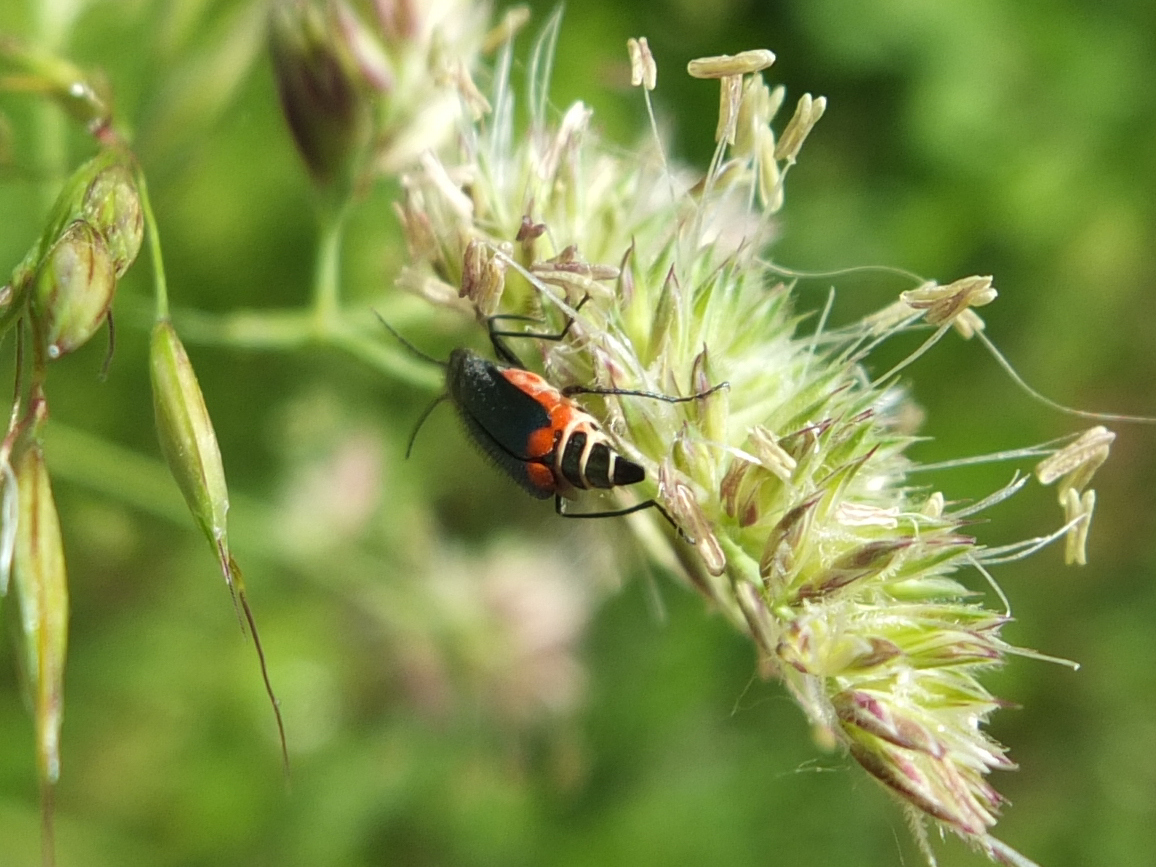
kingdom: Animalia
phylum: Arthropoda
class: Insecta
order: Coleoptera
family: Melyridae
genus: Malachius
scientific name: Malachius bipustulatus
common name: Malachite beetle
